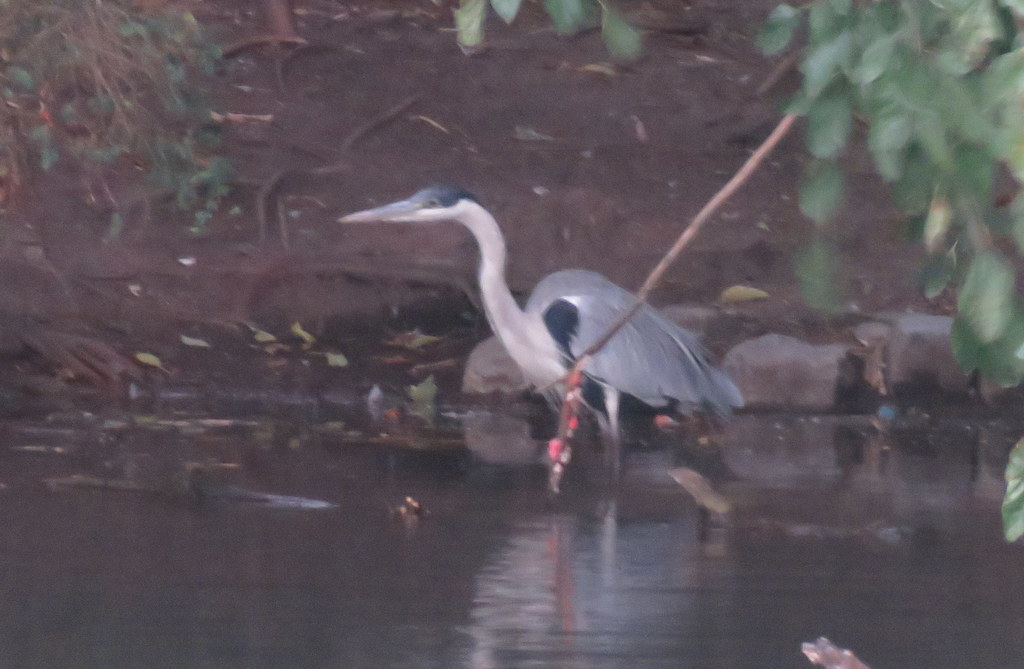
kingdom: Animalia
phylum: Chordata
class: Aves
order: Pelecaniformes
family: Ardeidae
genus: Ardea
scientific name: Ardea cocoi
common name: Cocoi heron
